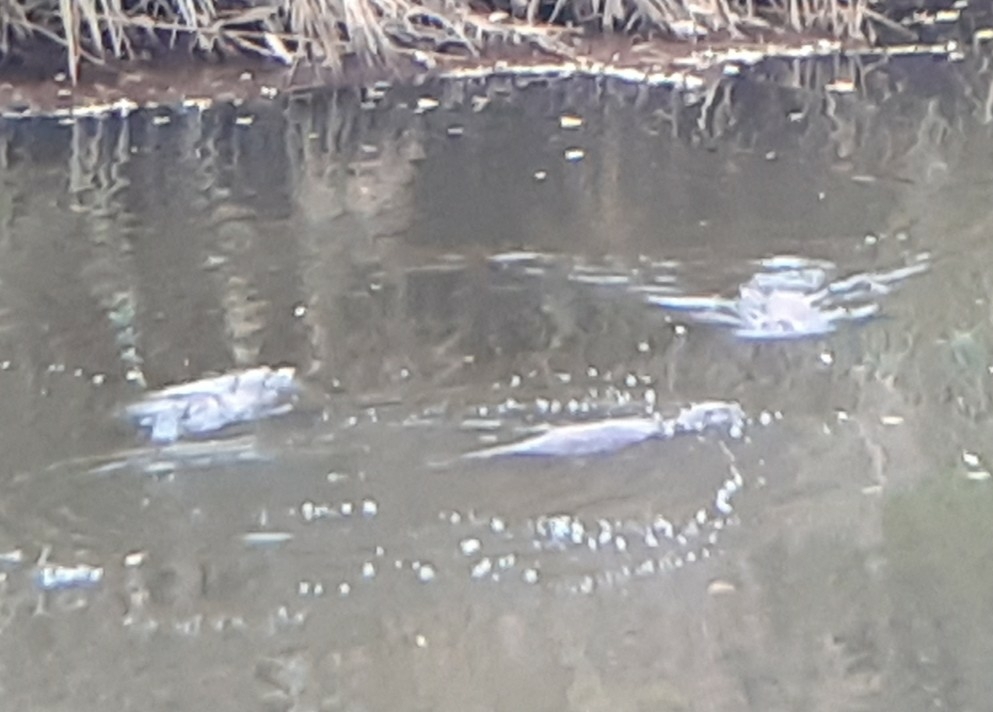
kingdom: Animalia
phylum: Chordata
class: Mammalia
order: Carnivora
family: Mustelidae
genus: Lutra
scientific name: Lutra lutra
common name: European otter
